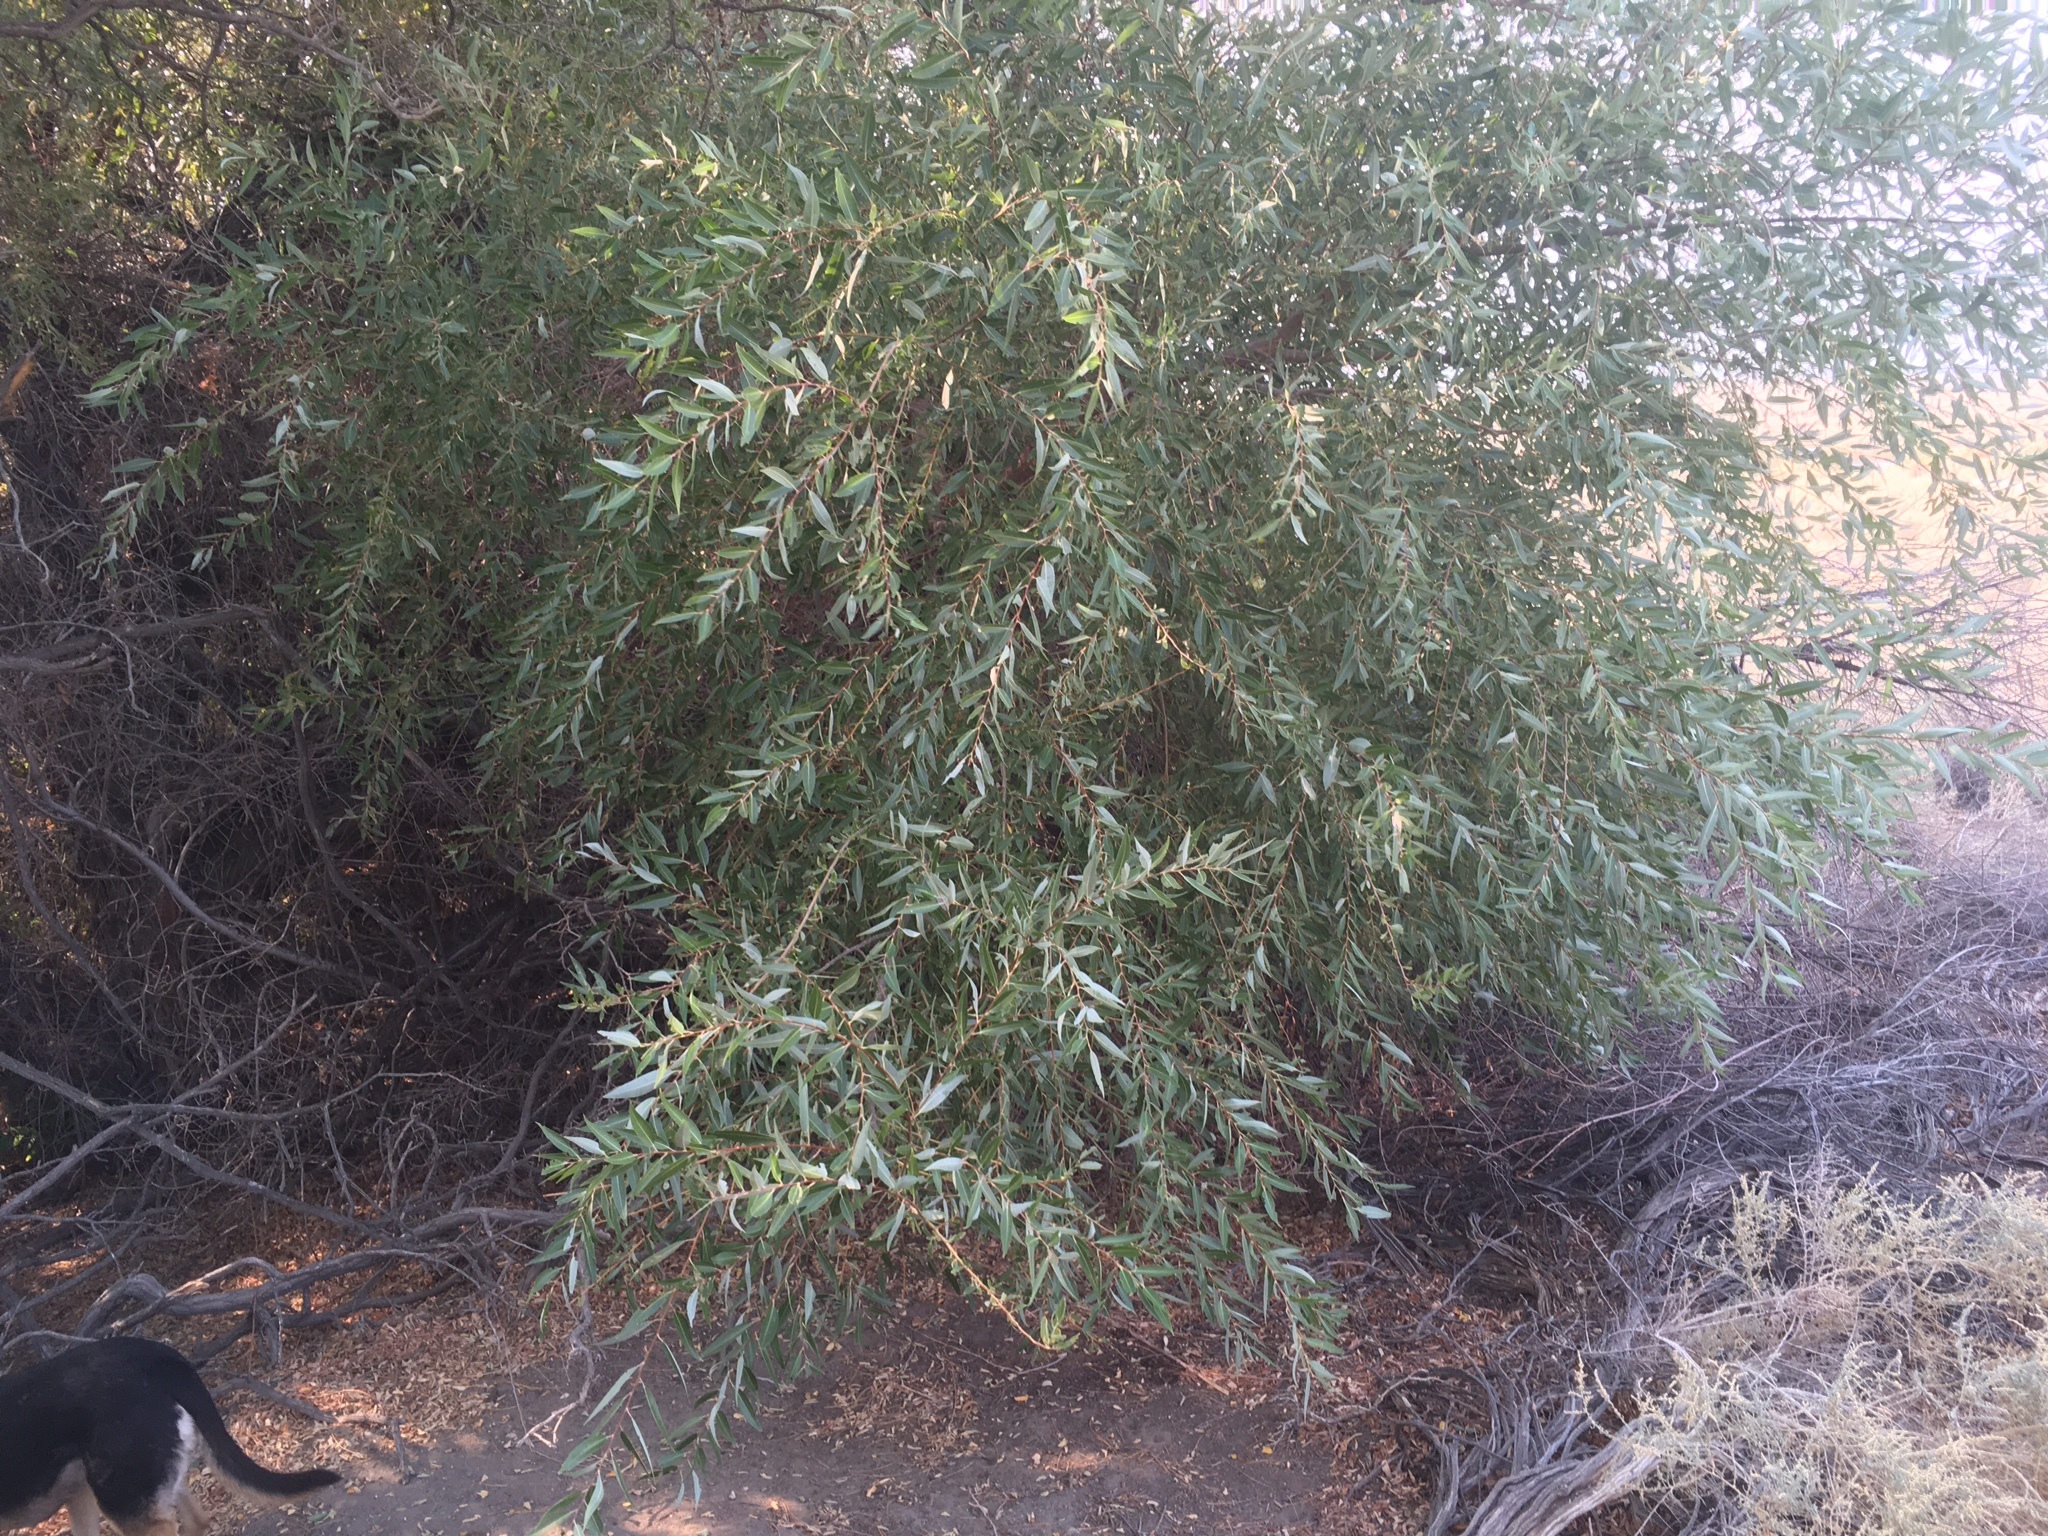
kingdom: Plantae
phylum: Tracheophyta
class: Magnoliopsida
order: Malpighiales
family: Salicaceae
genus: Salix
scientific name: Salix laevigata
